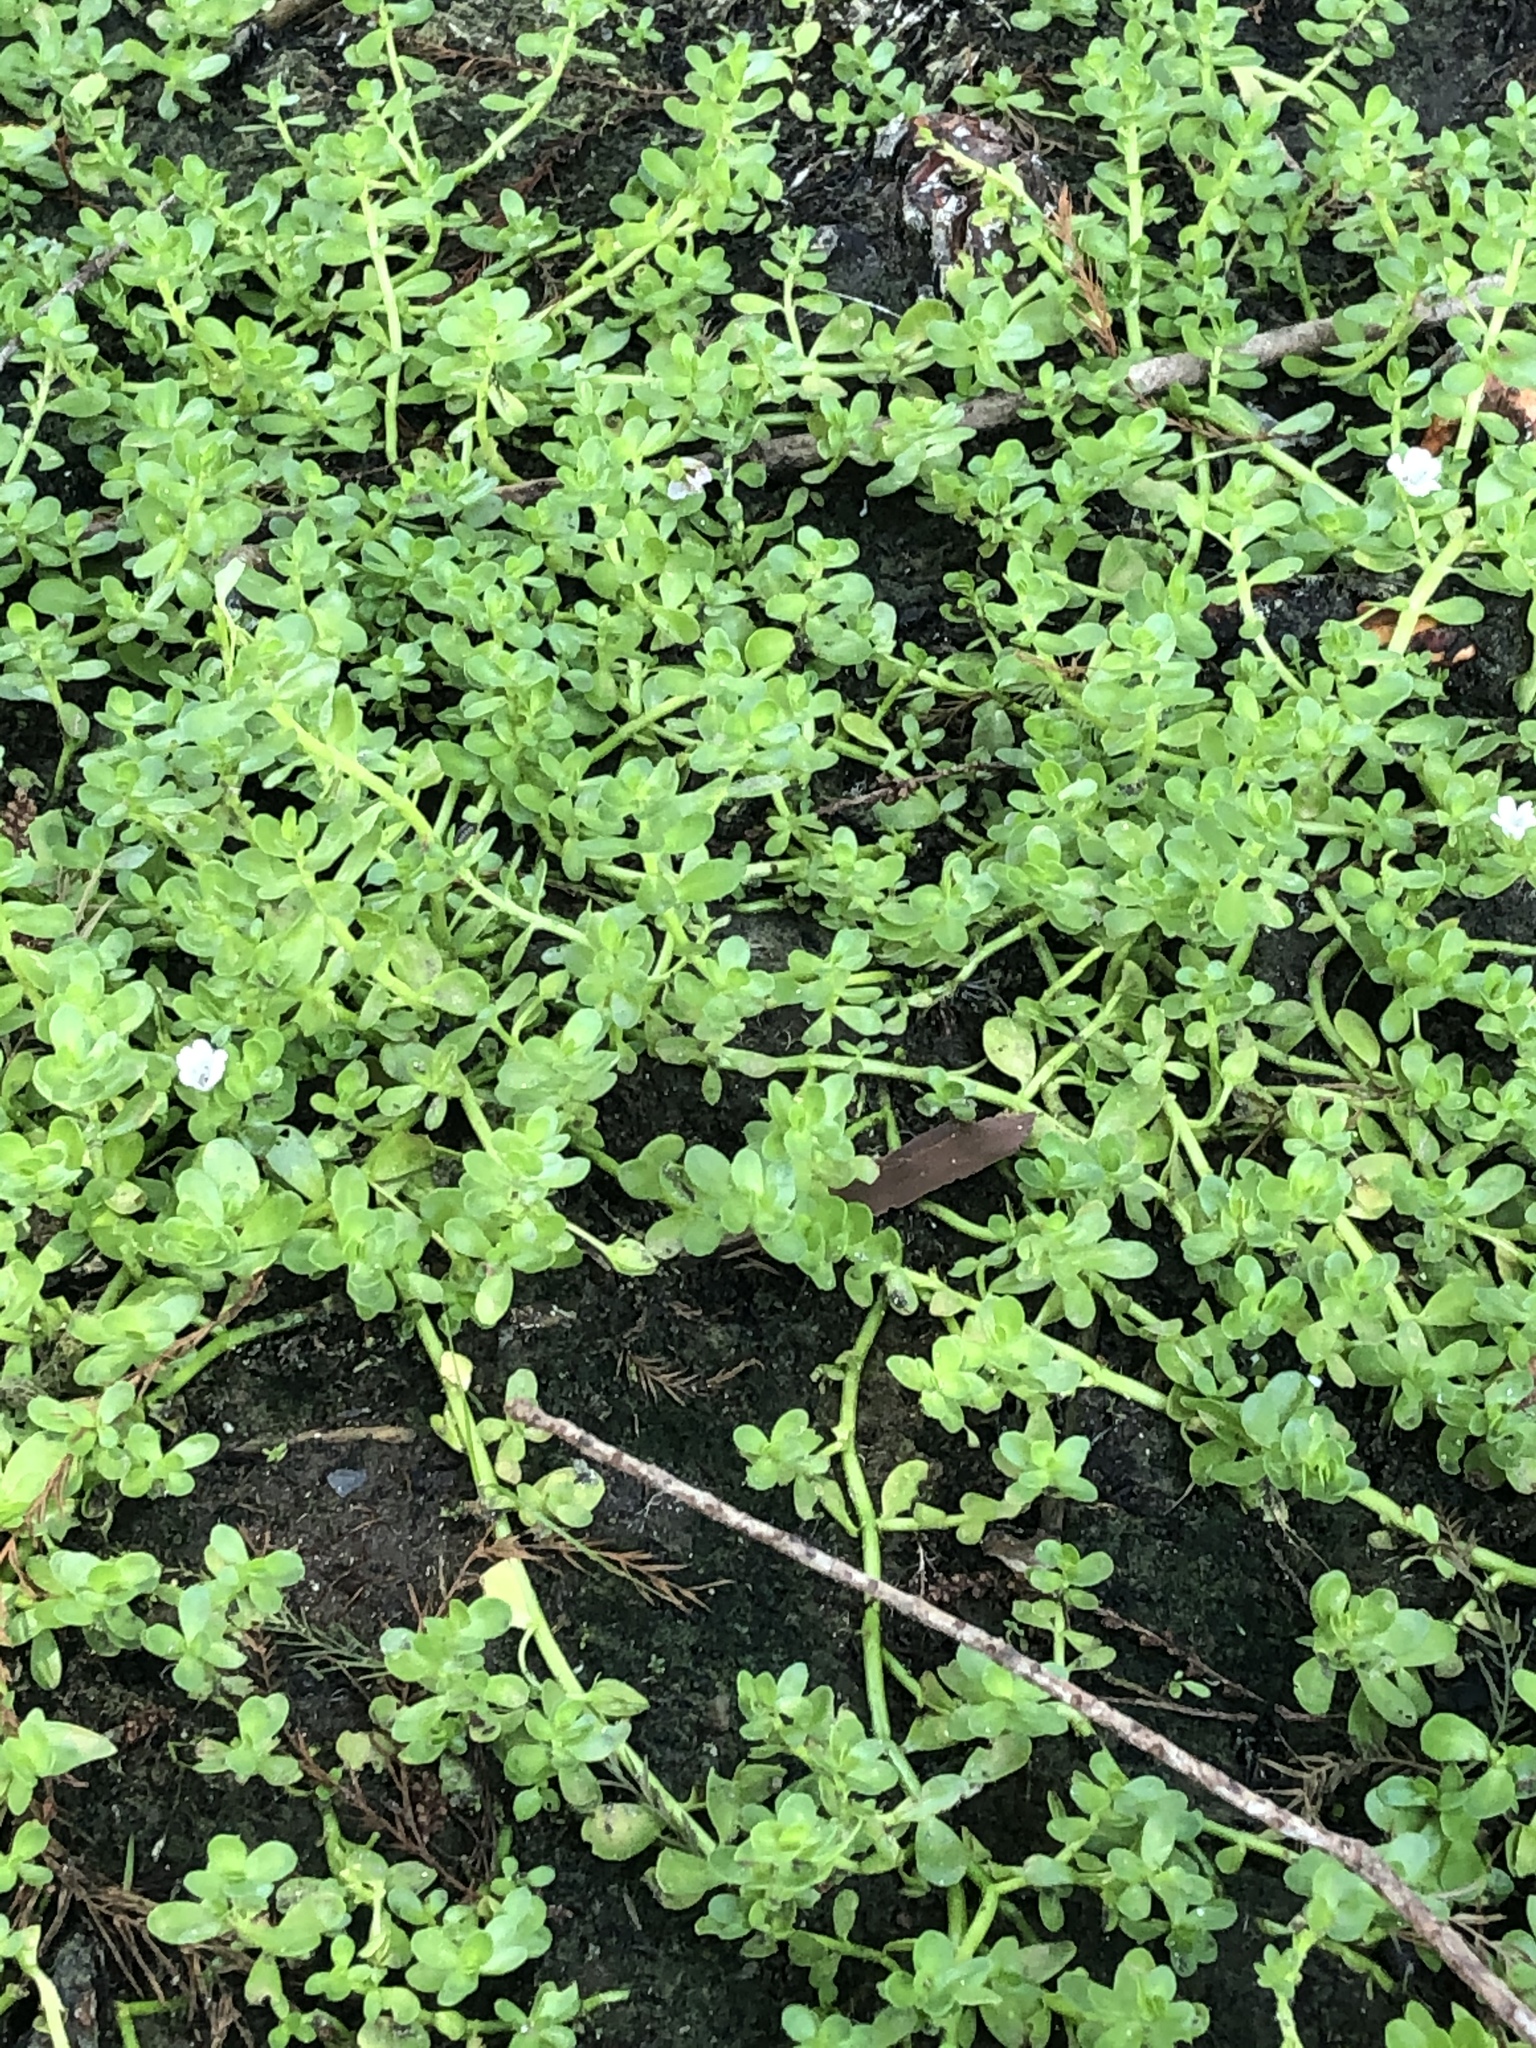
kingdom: Plantae
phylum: Tracheophyta
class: Magnoliopsida
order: Lamiales
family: Plantaginaceae
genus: Bacopa
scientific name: Bacopa monnieri
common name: Indian-pennywort
